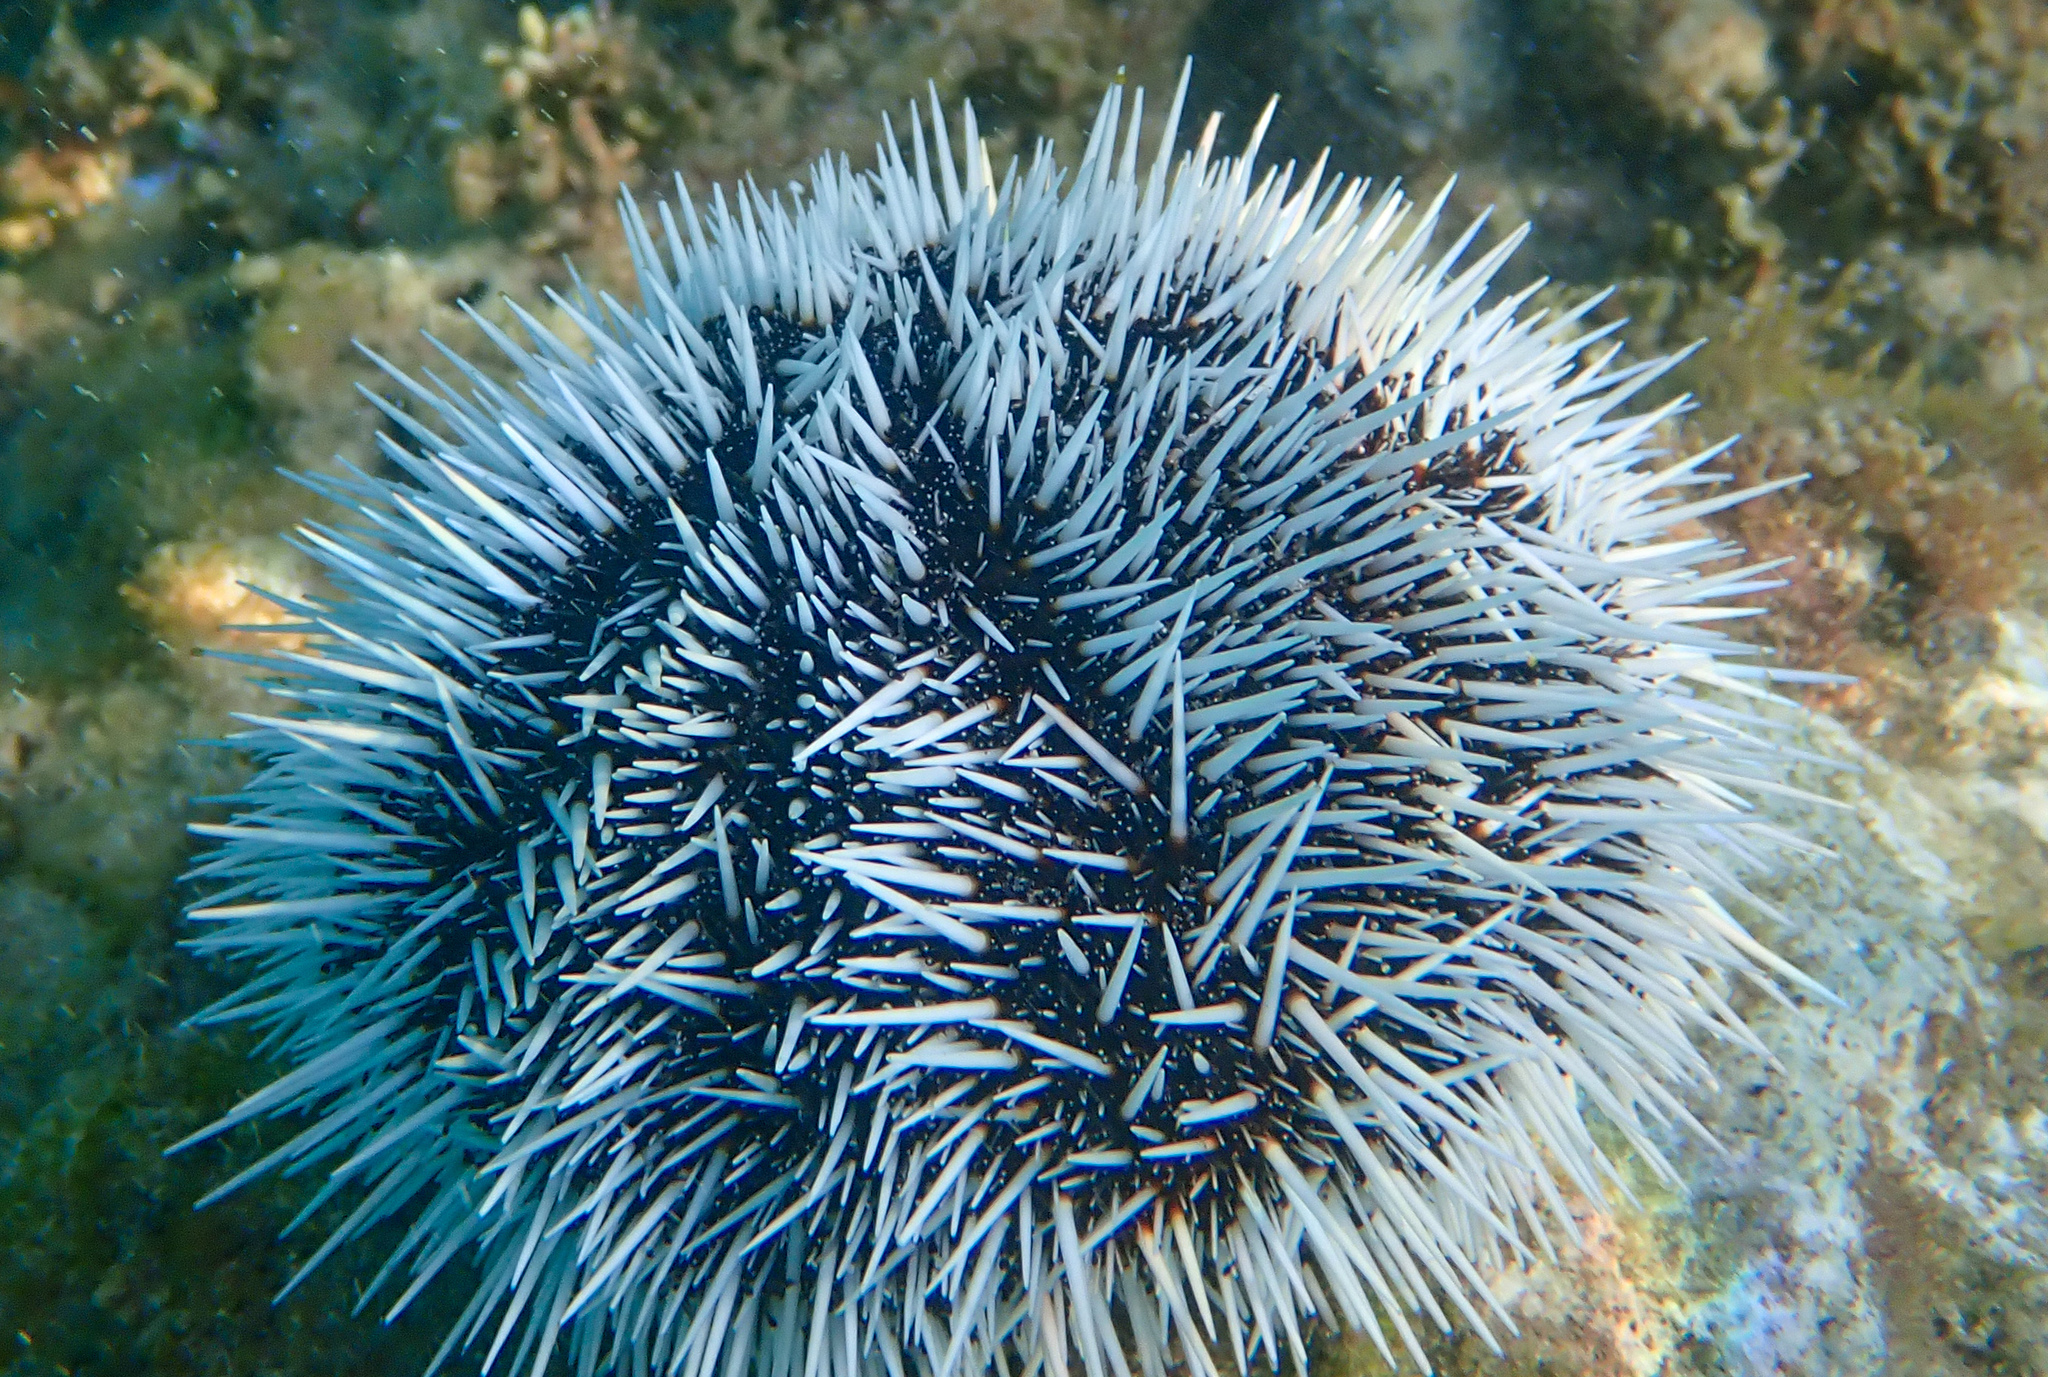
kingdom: Animalia
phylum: Echinodermata
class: Echinoidea
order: Camarodonta
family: Toxopneustidae
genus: Tripneustes
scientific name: Tripneustes ventricosus
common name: West indian sea egg
